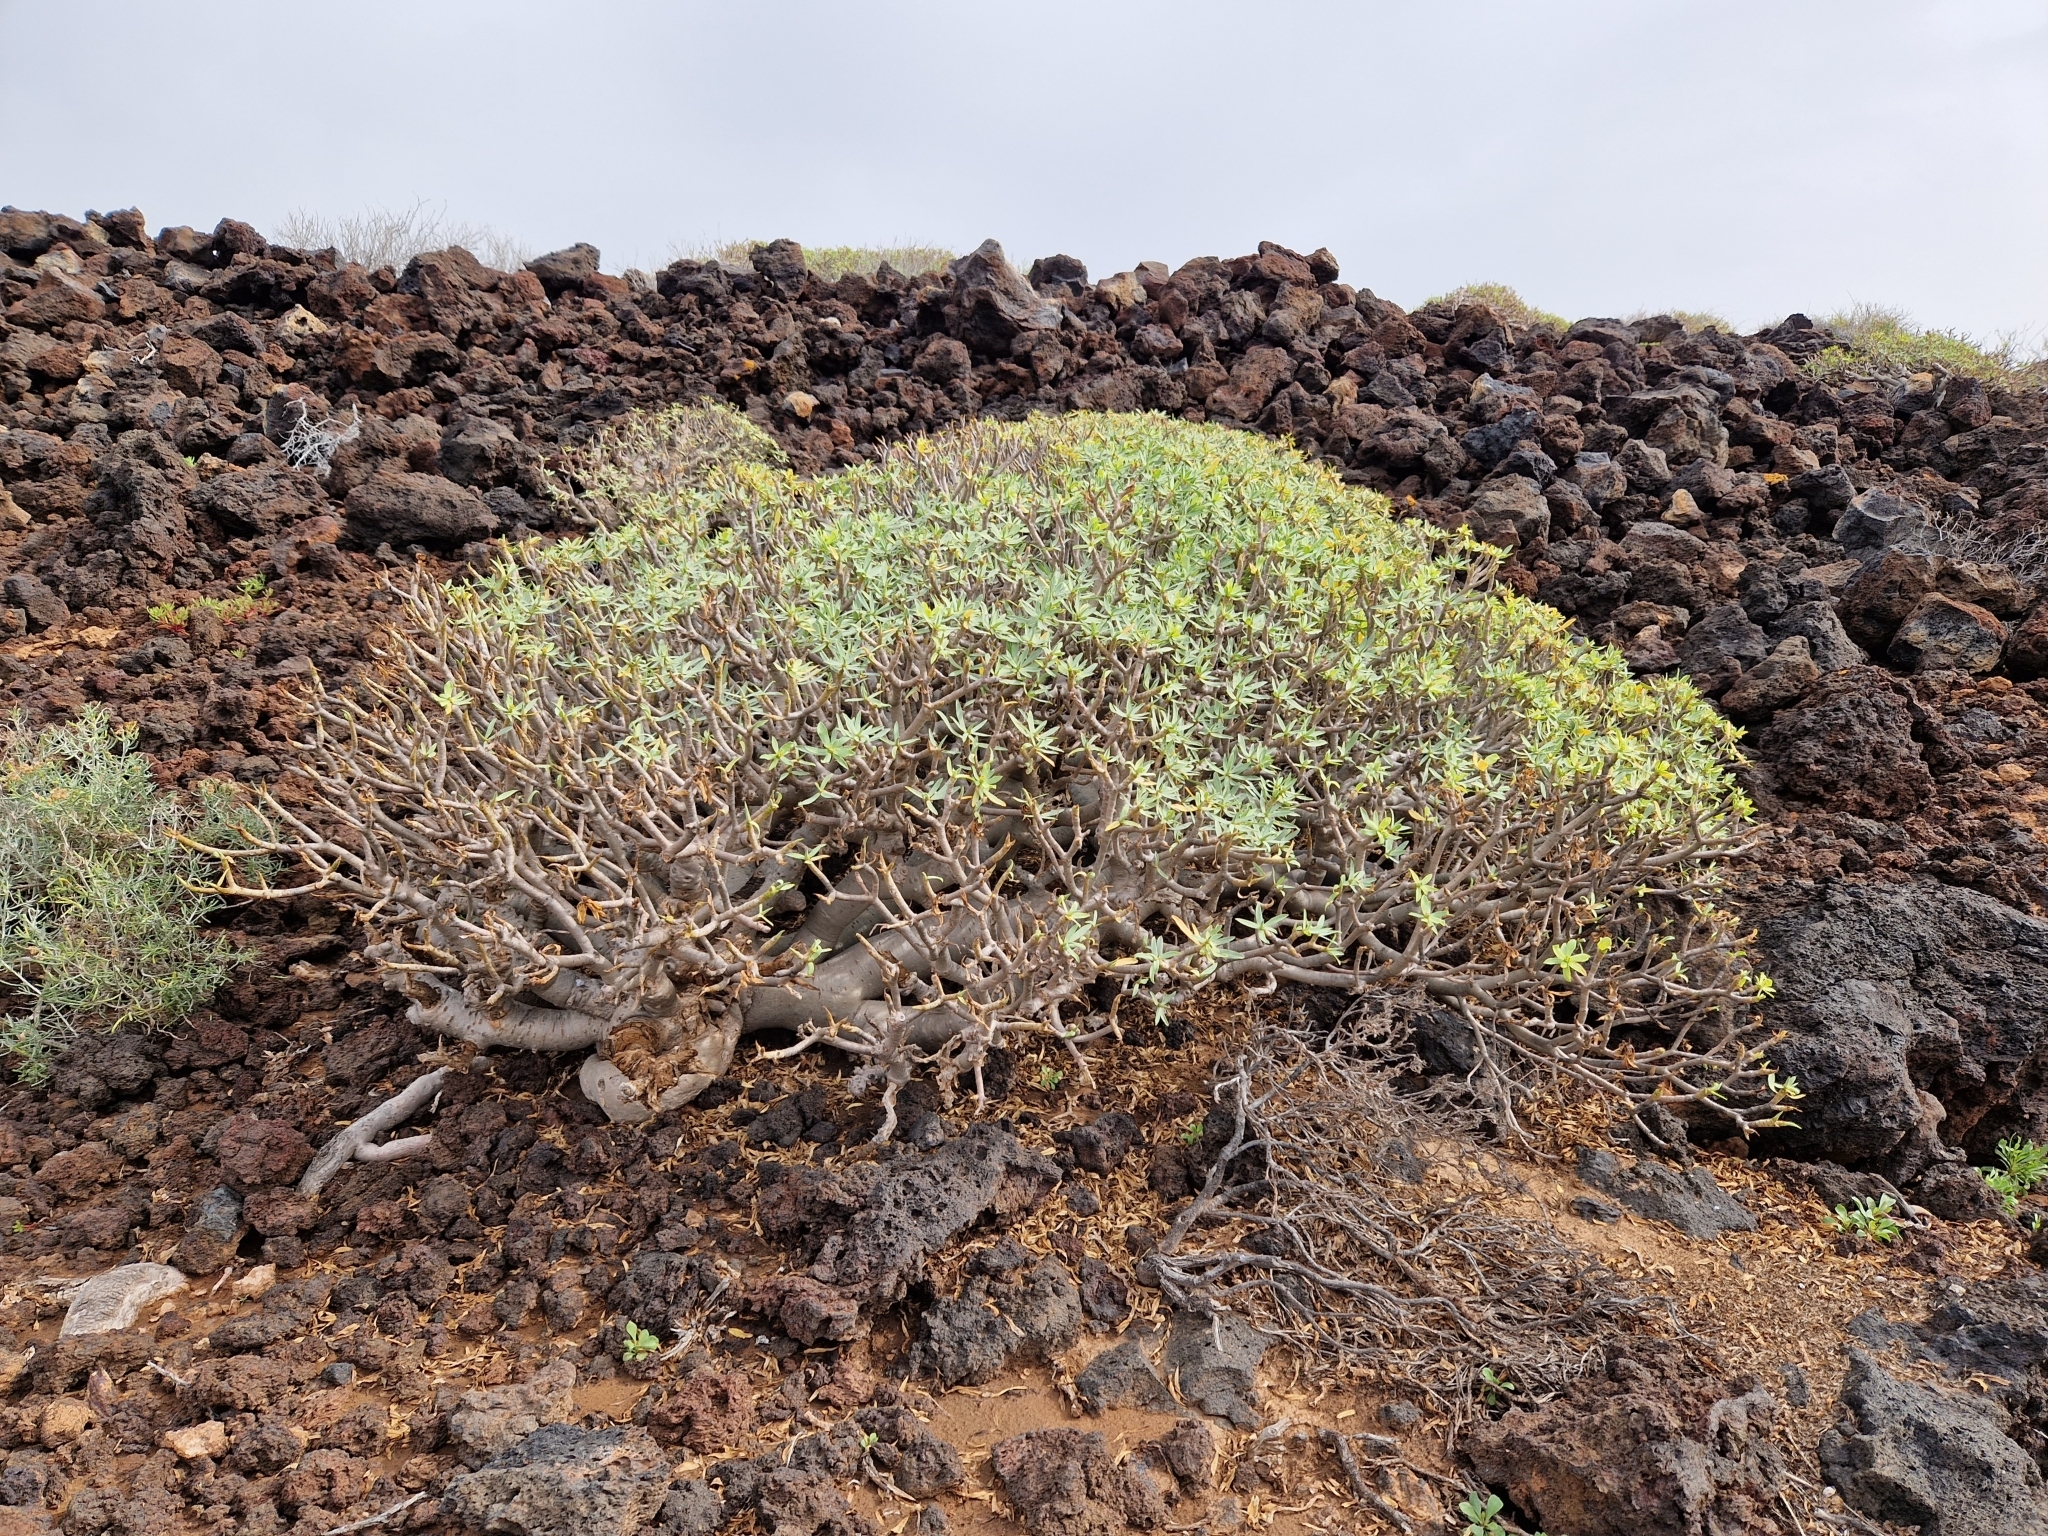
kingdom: Plantae
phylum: Tracheophyta
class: Magnoliopsida
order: Malpighiales
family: Euphorbiaceae
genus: Euphorbia
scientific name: Euphorbia balsamifera
